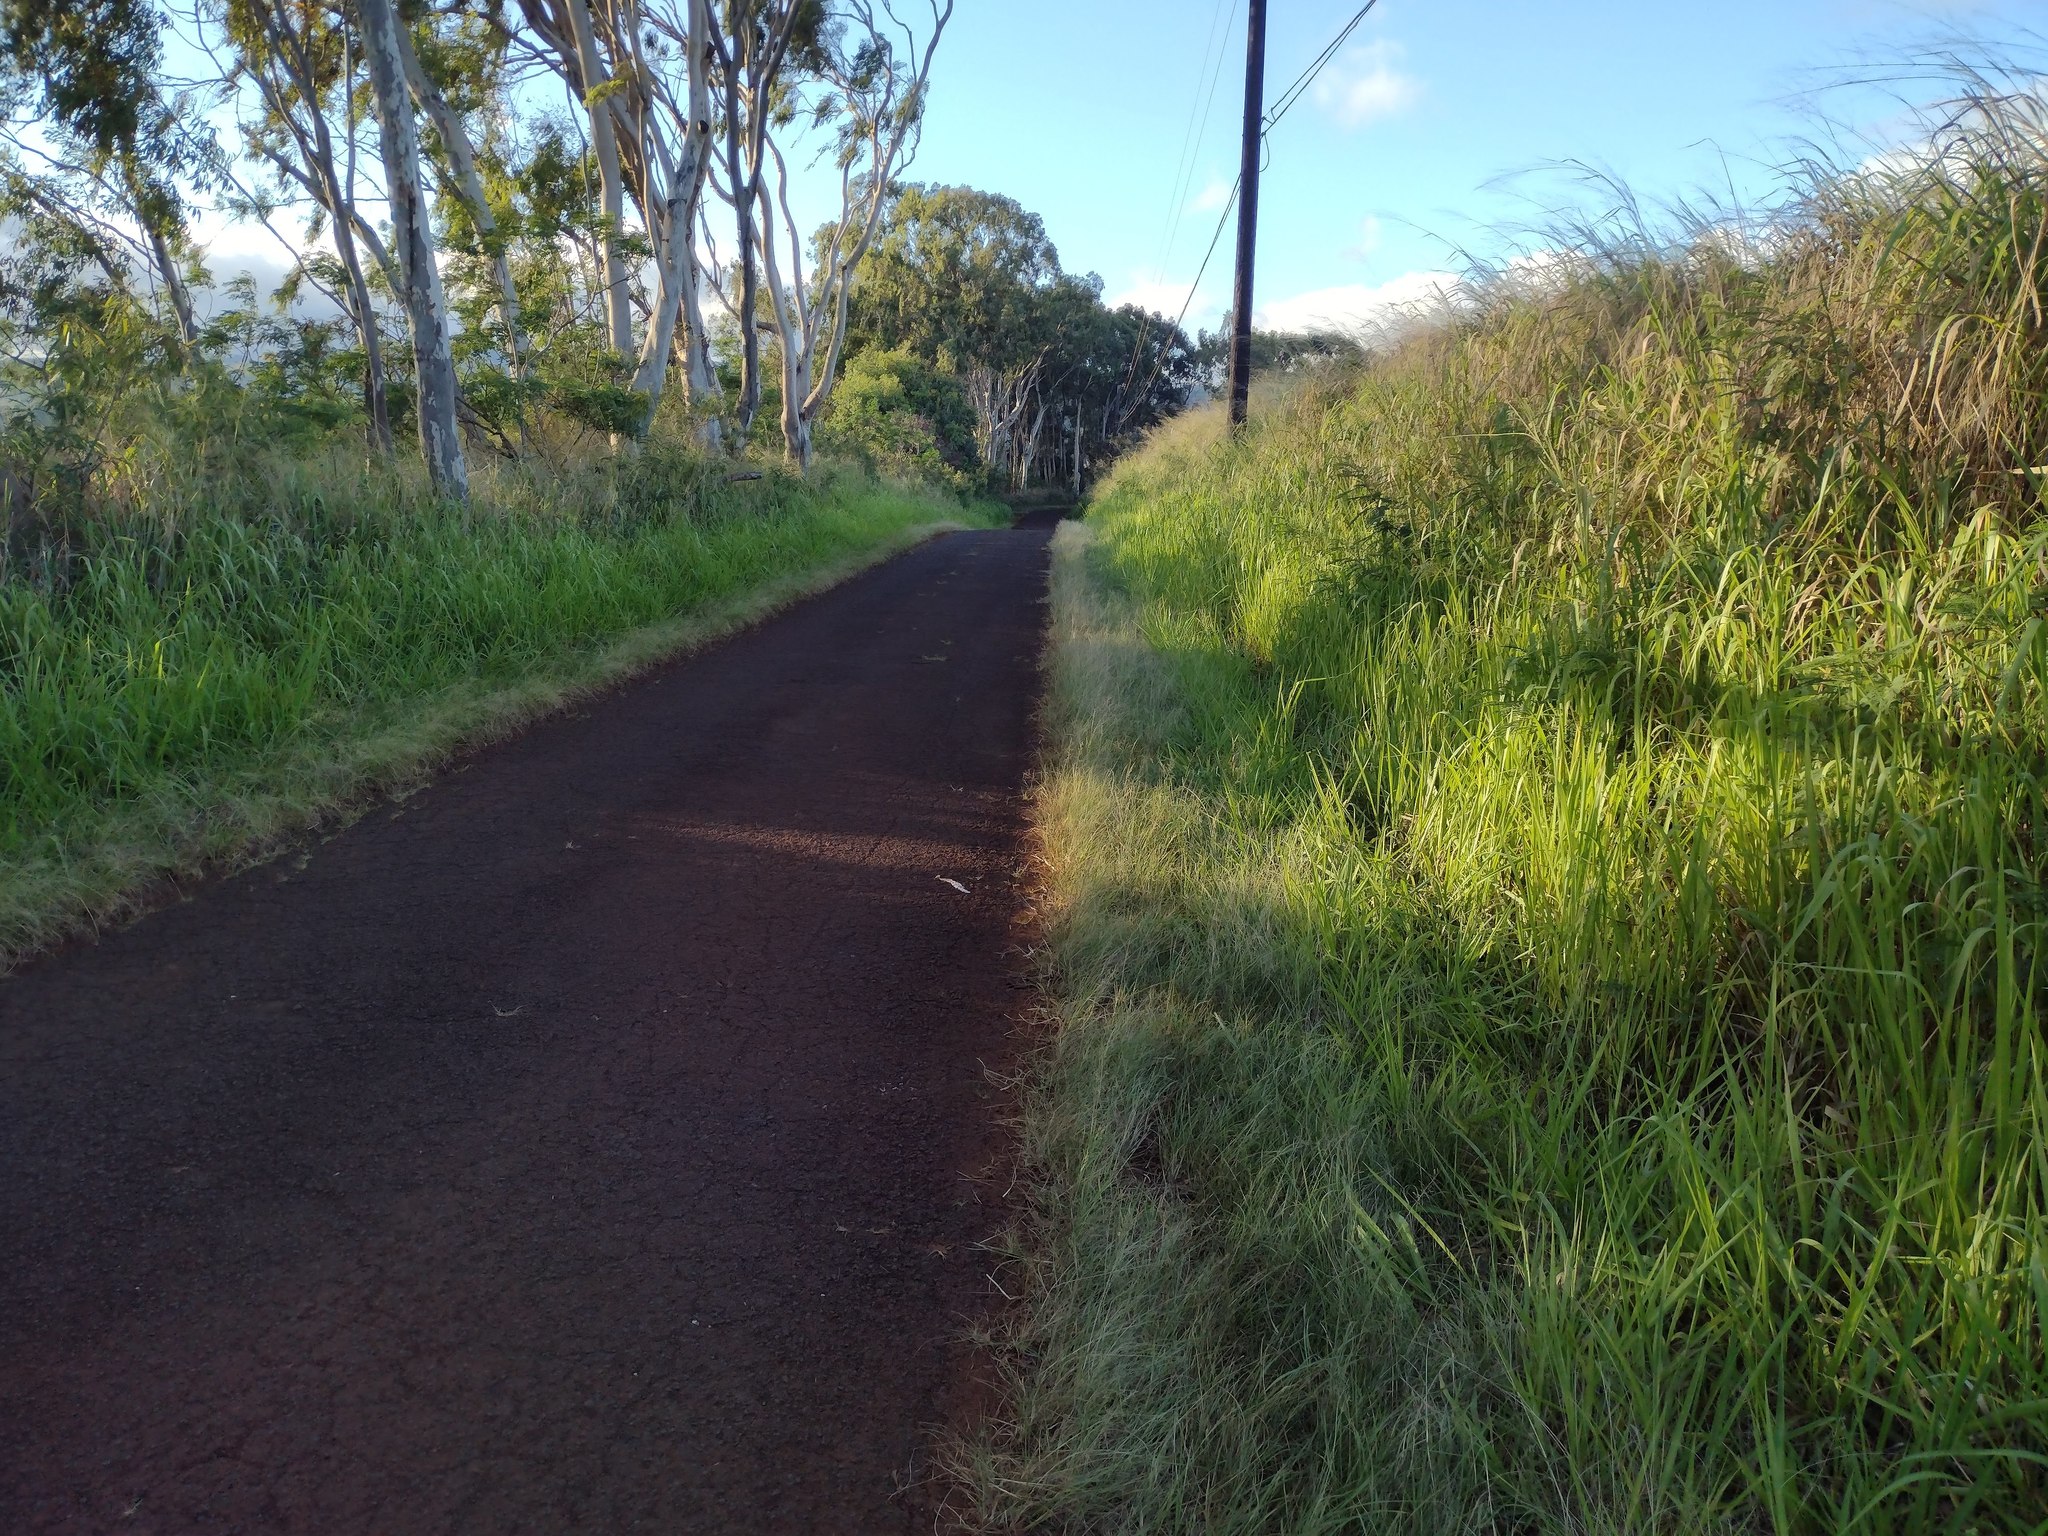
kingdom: Plantae
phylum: Tracheophyta
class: Liliopsida
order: Poales
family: Poaceae
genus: Megathyrsus
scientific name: Megathyrsus maximus
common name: Guineagrass
